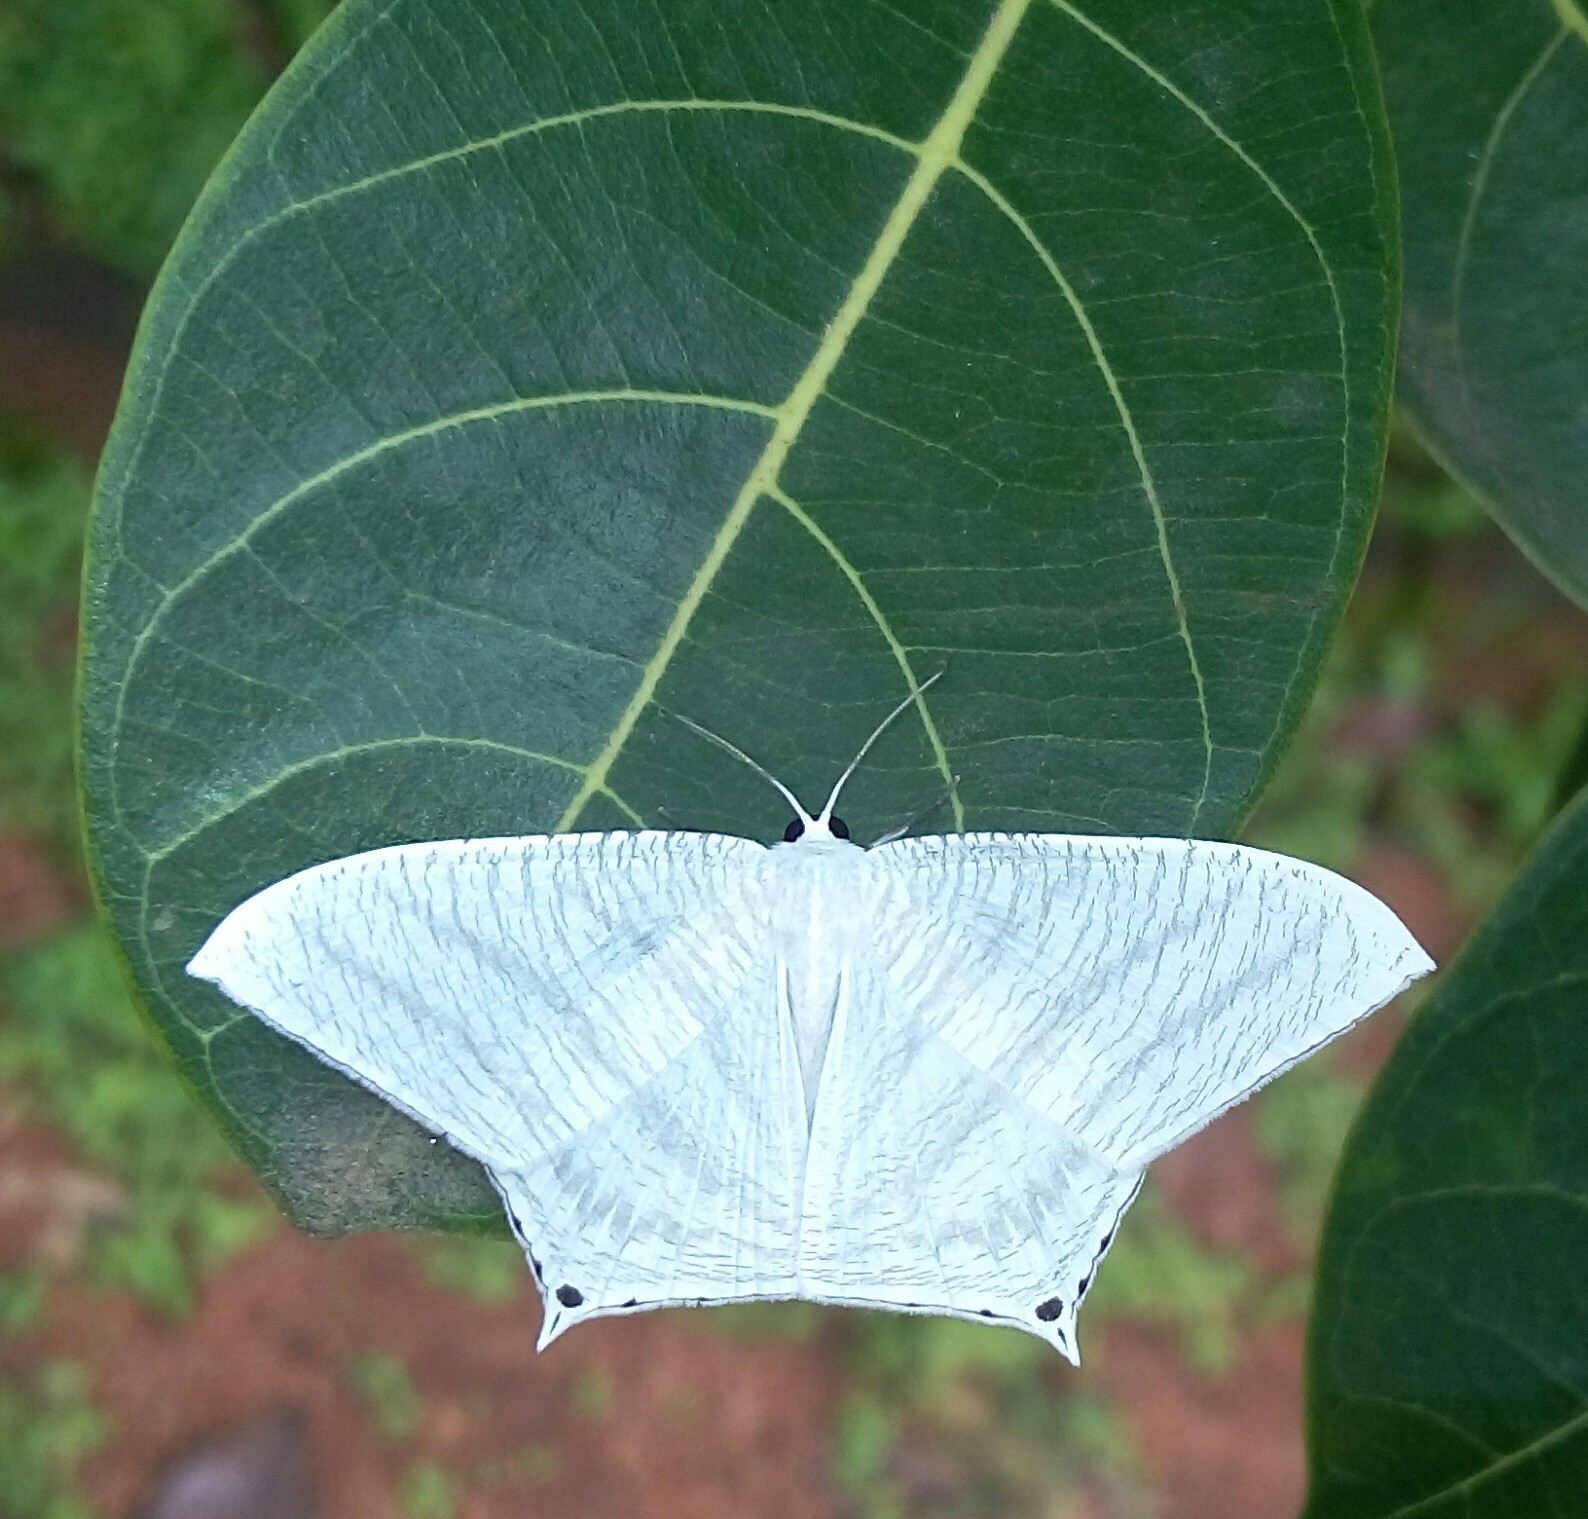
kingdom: Animalia
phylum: Arthropoda
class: Insecta
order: Lepidoptera
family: Uraniidae
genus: Micronia
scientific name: Micronia aculeata
